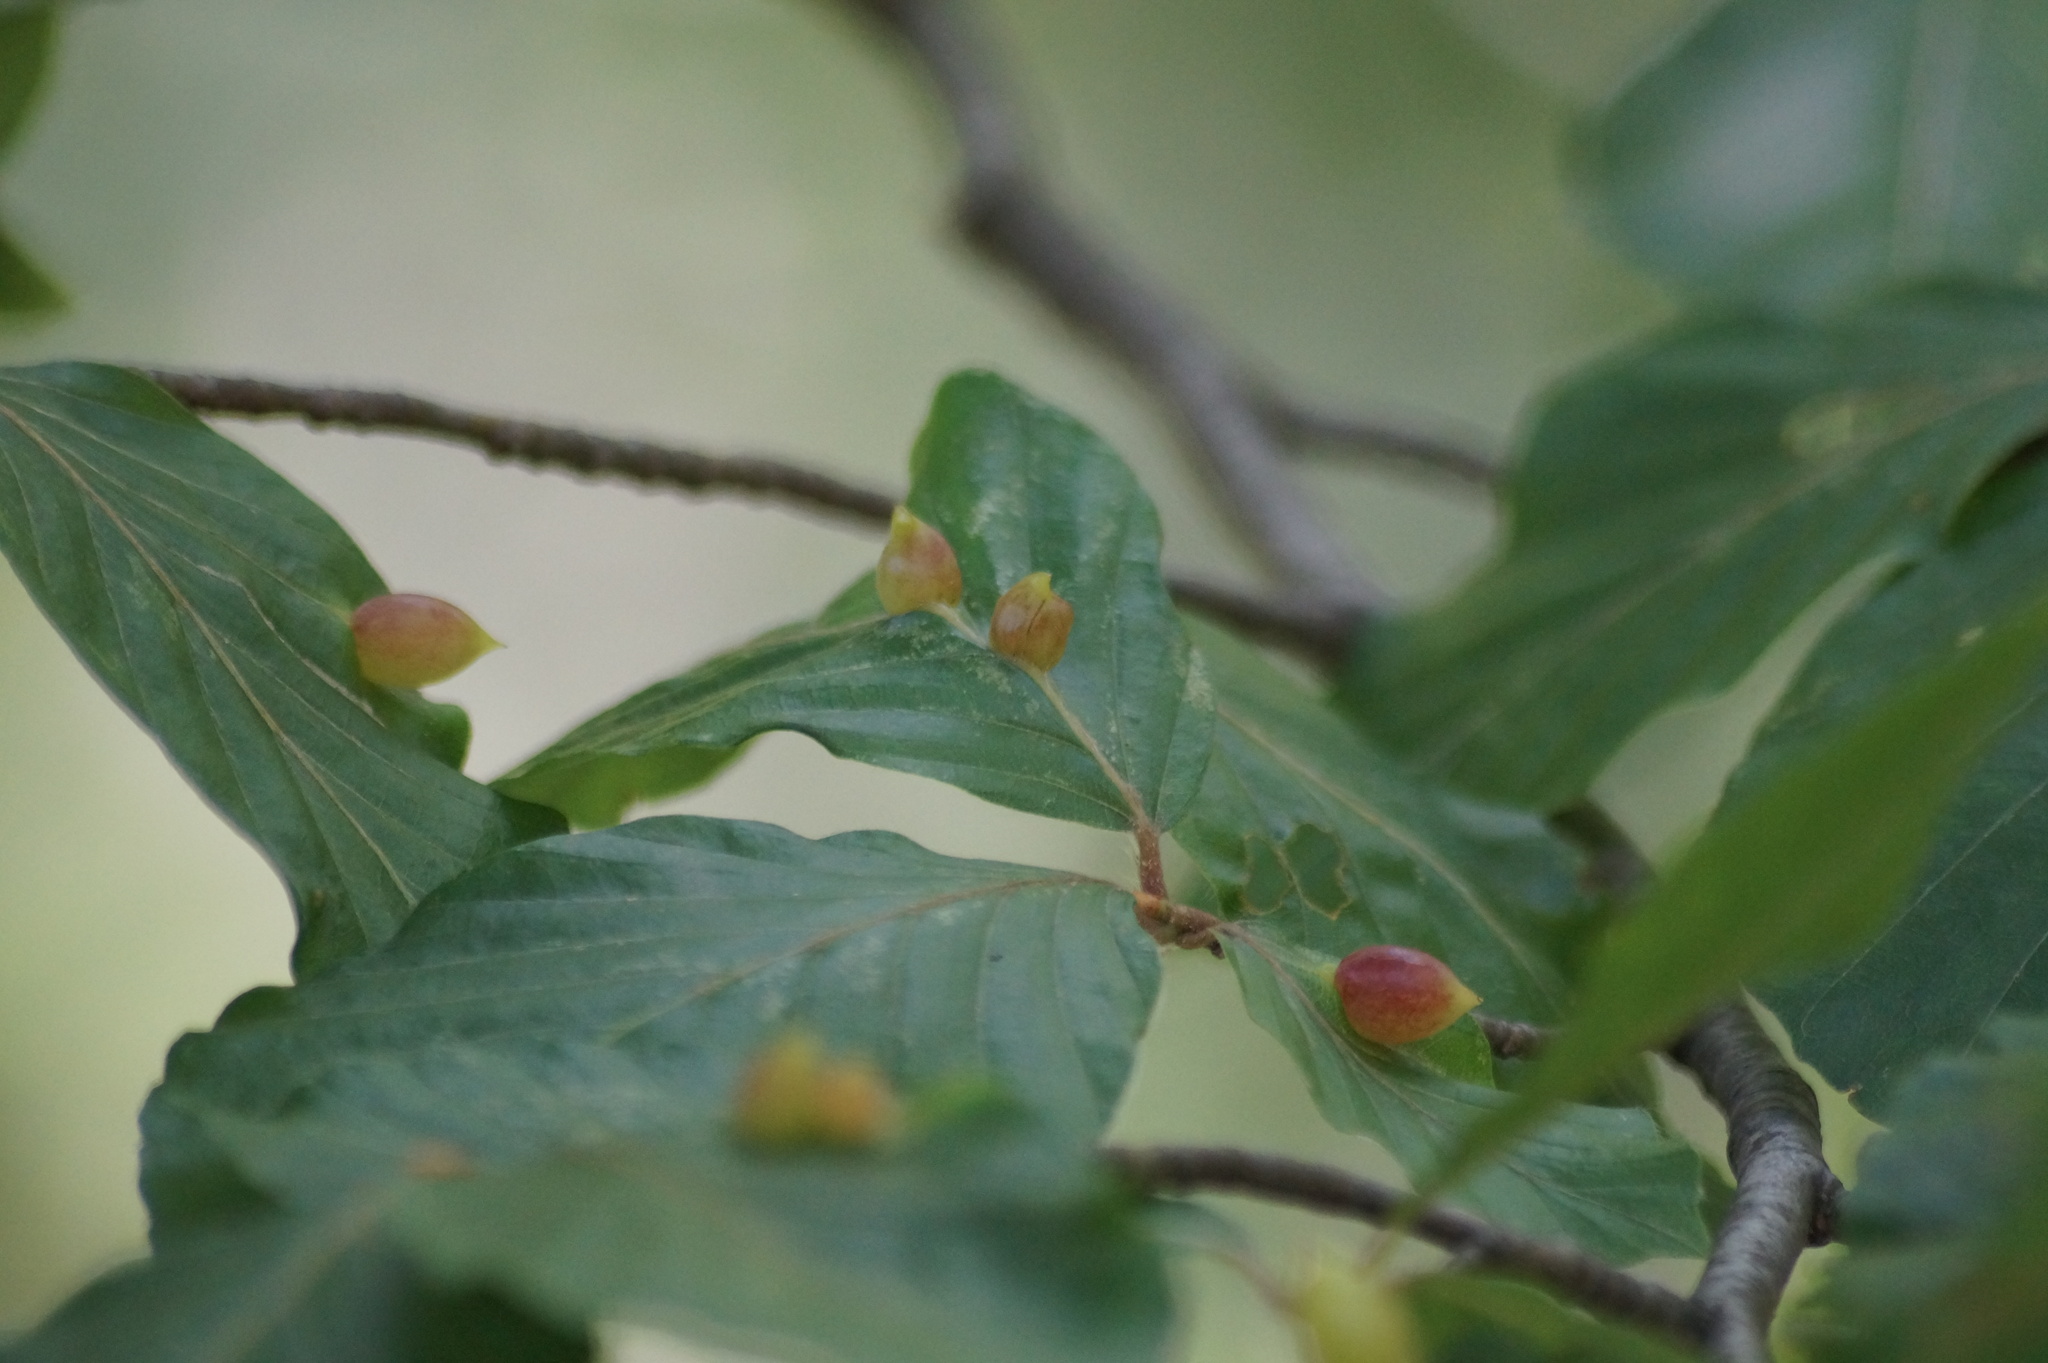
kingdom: Animalia
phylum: Arthropoda
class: Insecta
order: Diptera
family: Cecidomyiidae
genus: Mikiola
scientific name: Mikiola fagi
